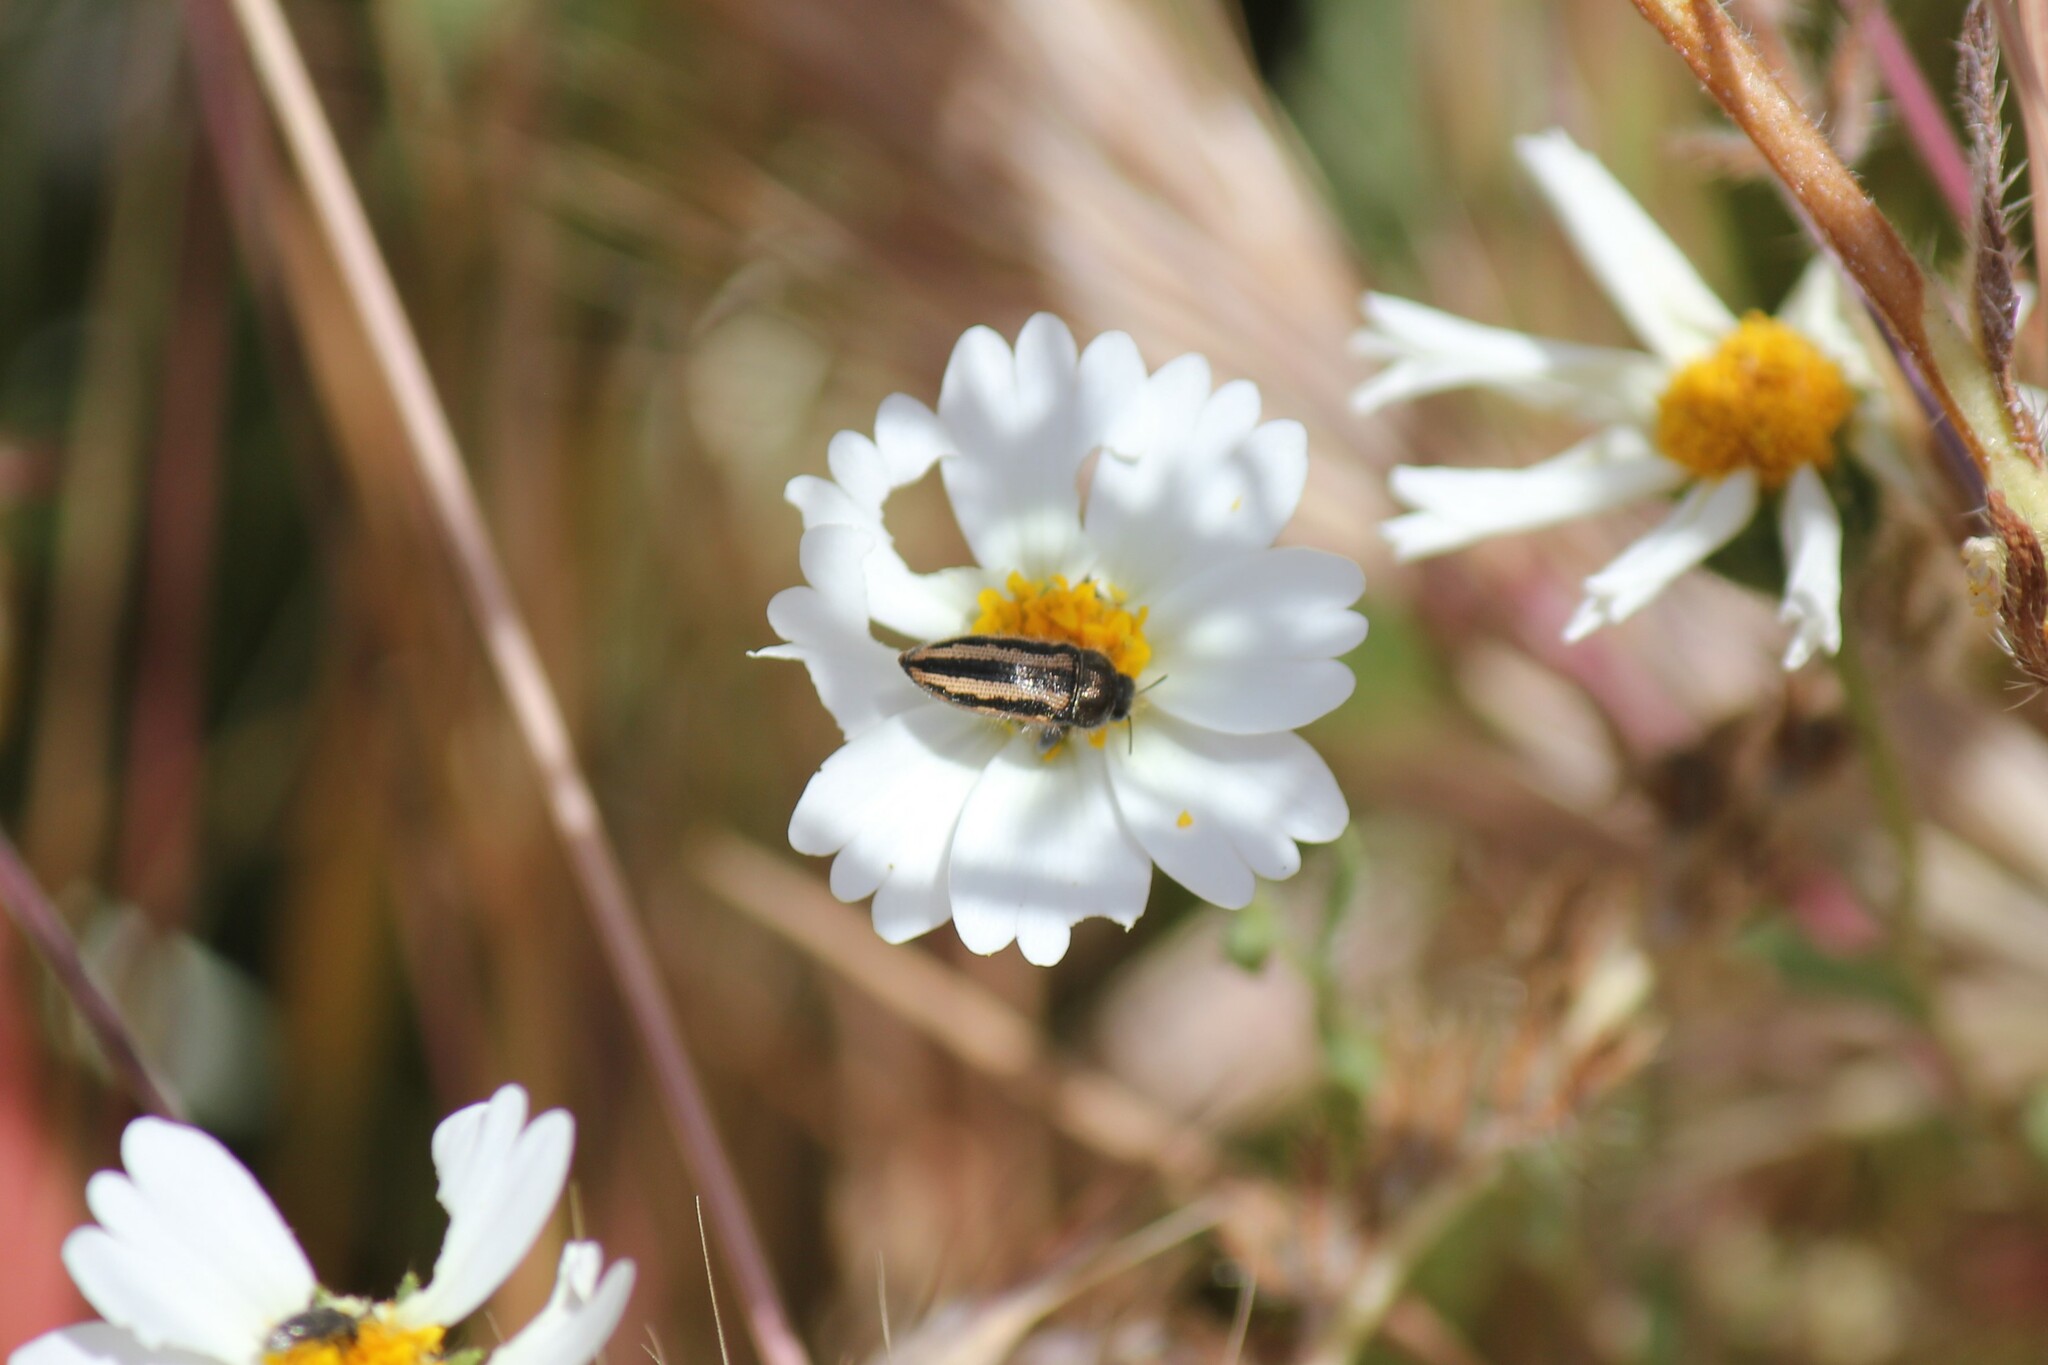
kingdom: Animalia
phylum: Arthropoda
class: Insecta
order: Coleoptera
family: Buprestidae
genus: Acmaeodera
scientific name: Acmaeodera nigrovittata
